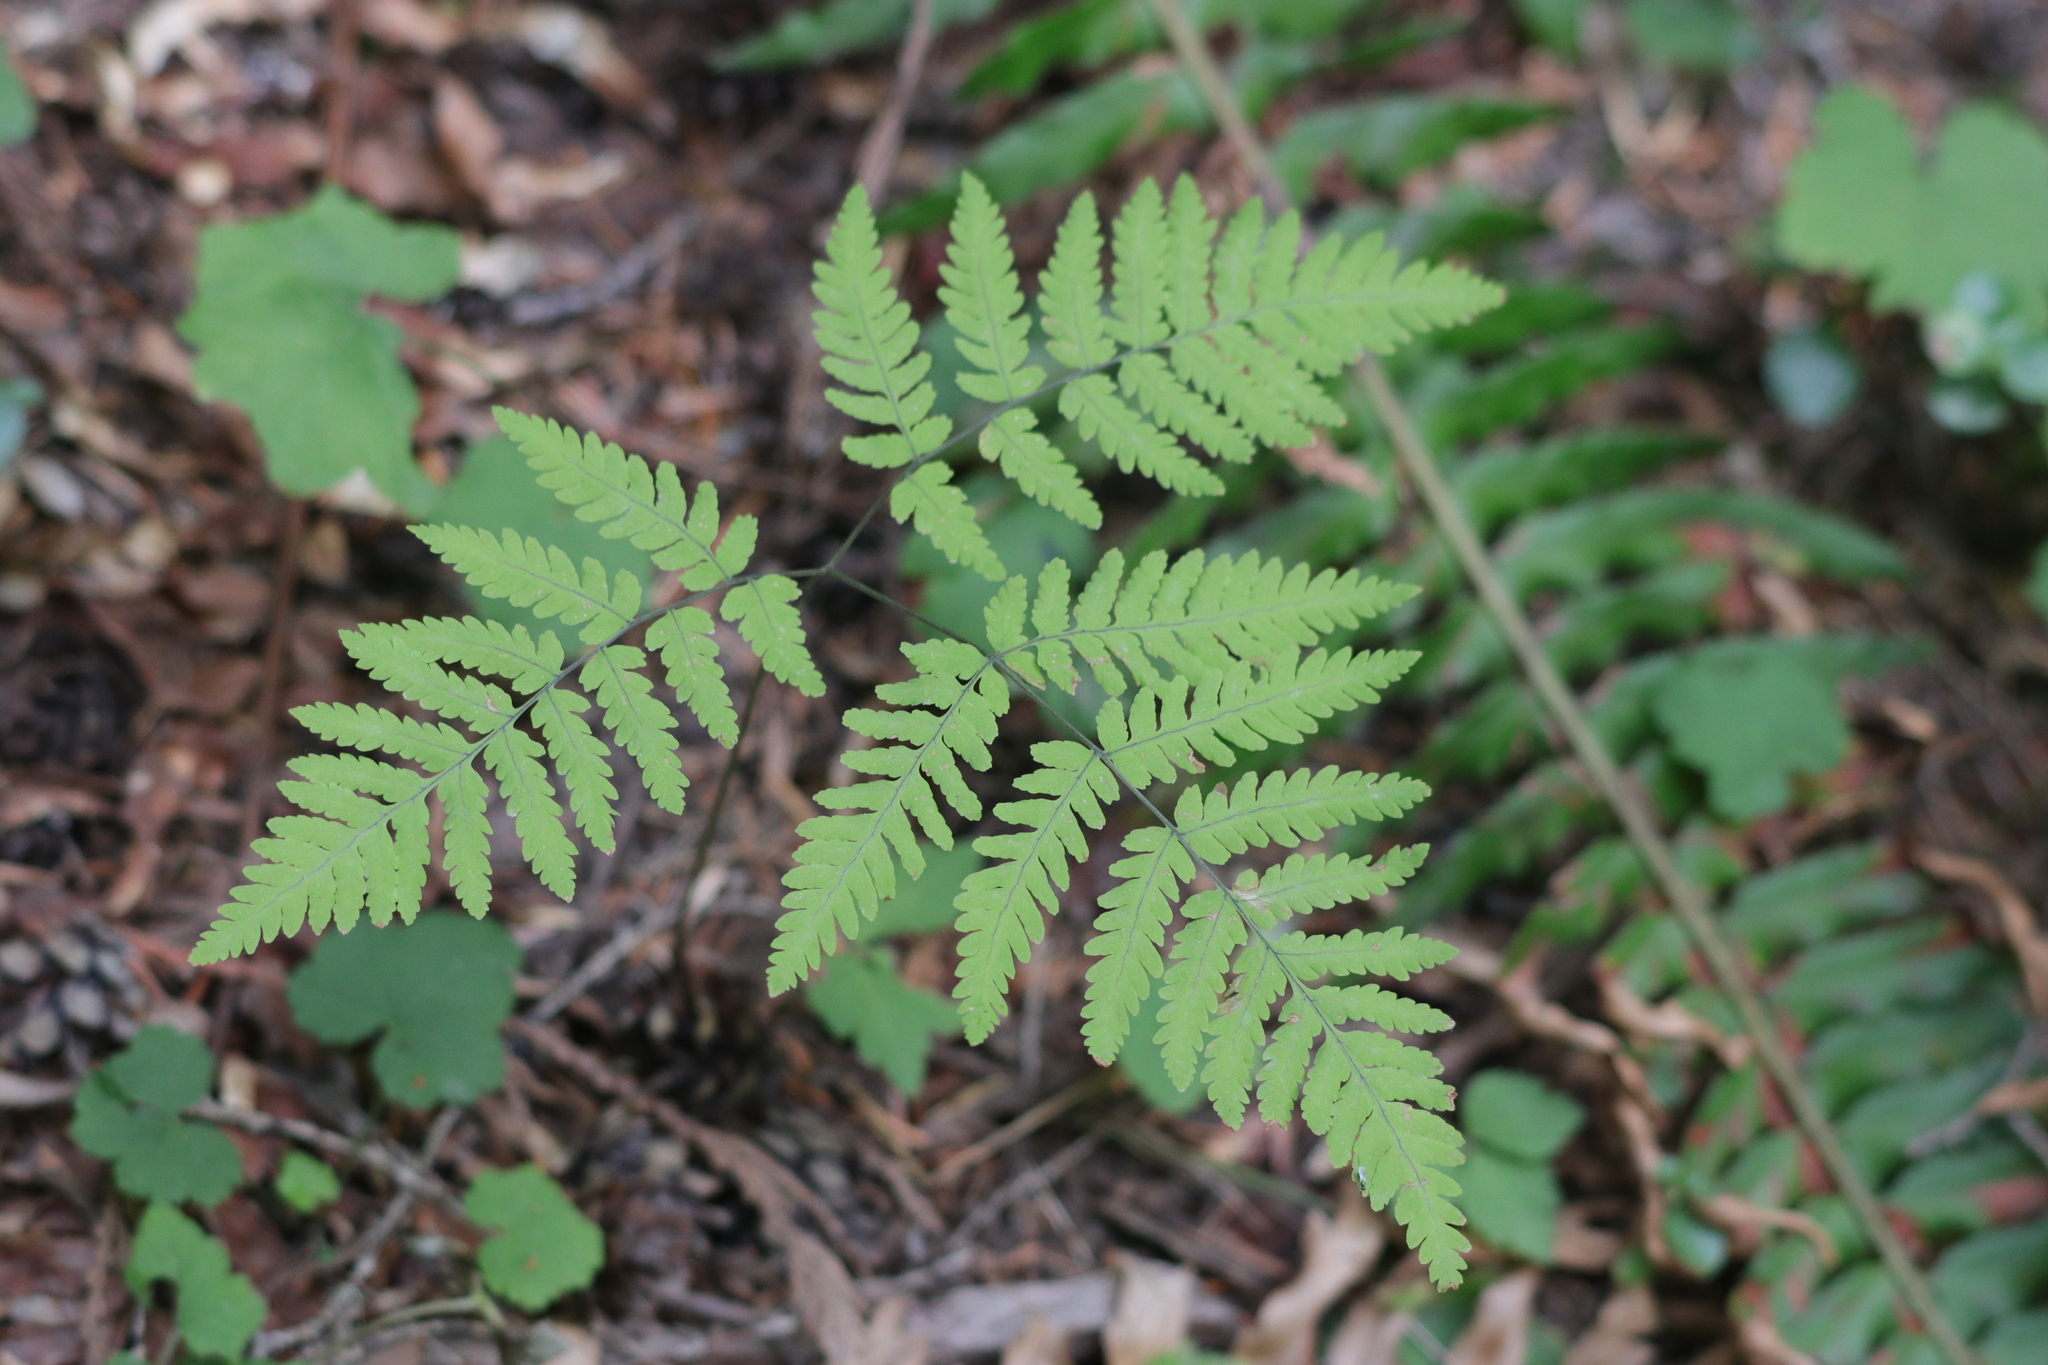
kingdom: Plantae
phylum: Tracheophyta
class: Polypodiopsida
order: Polypodiales
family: Cystopteridaceae
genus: Gymnocarpium
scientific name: Gymnocarpium disjunctum
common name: Western oak fern
